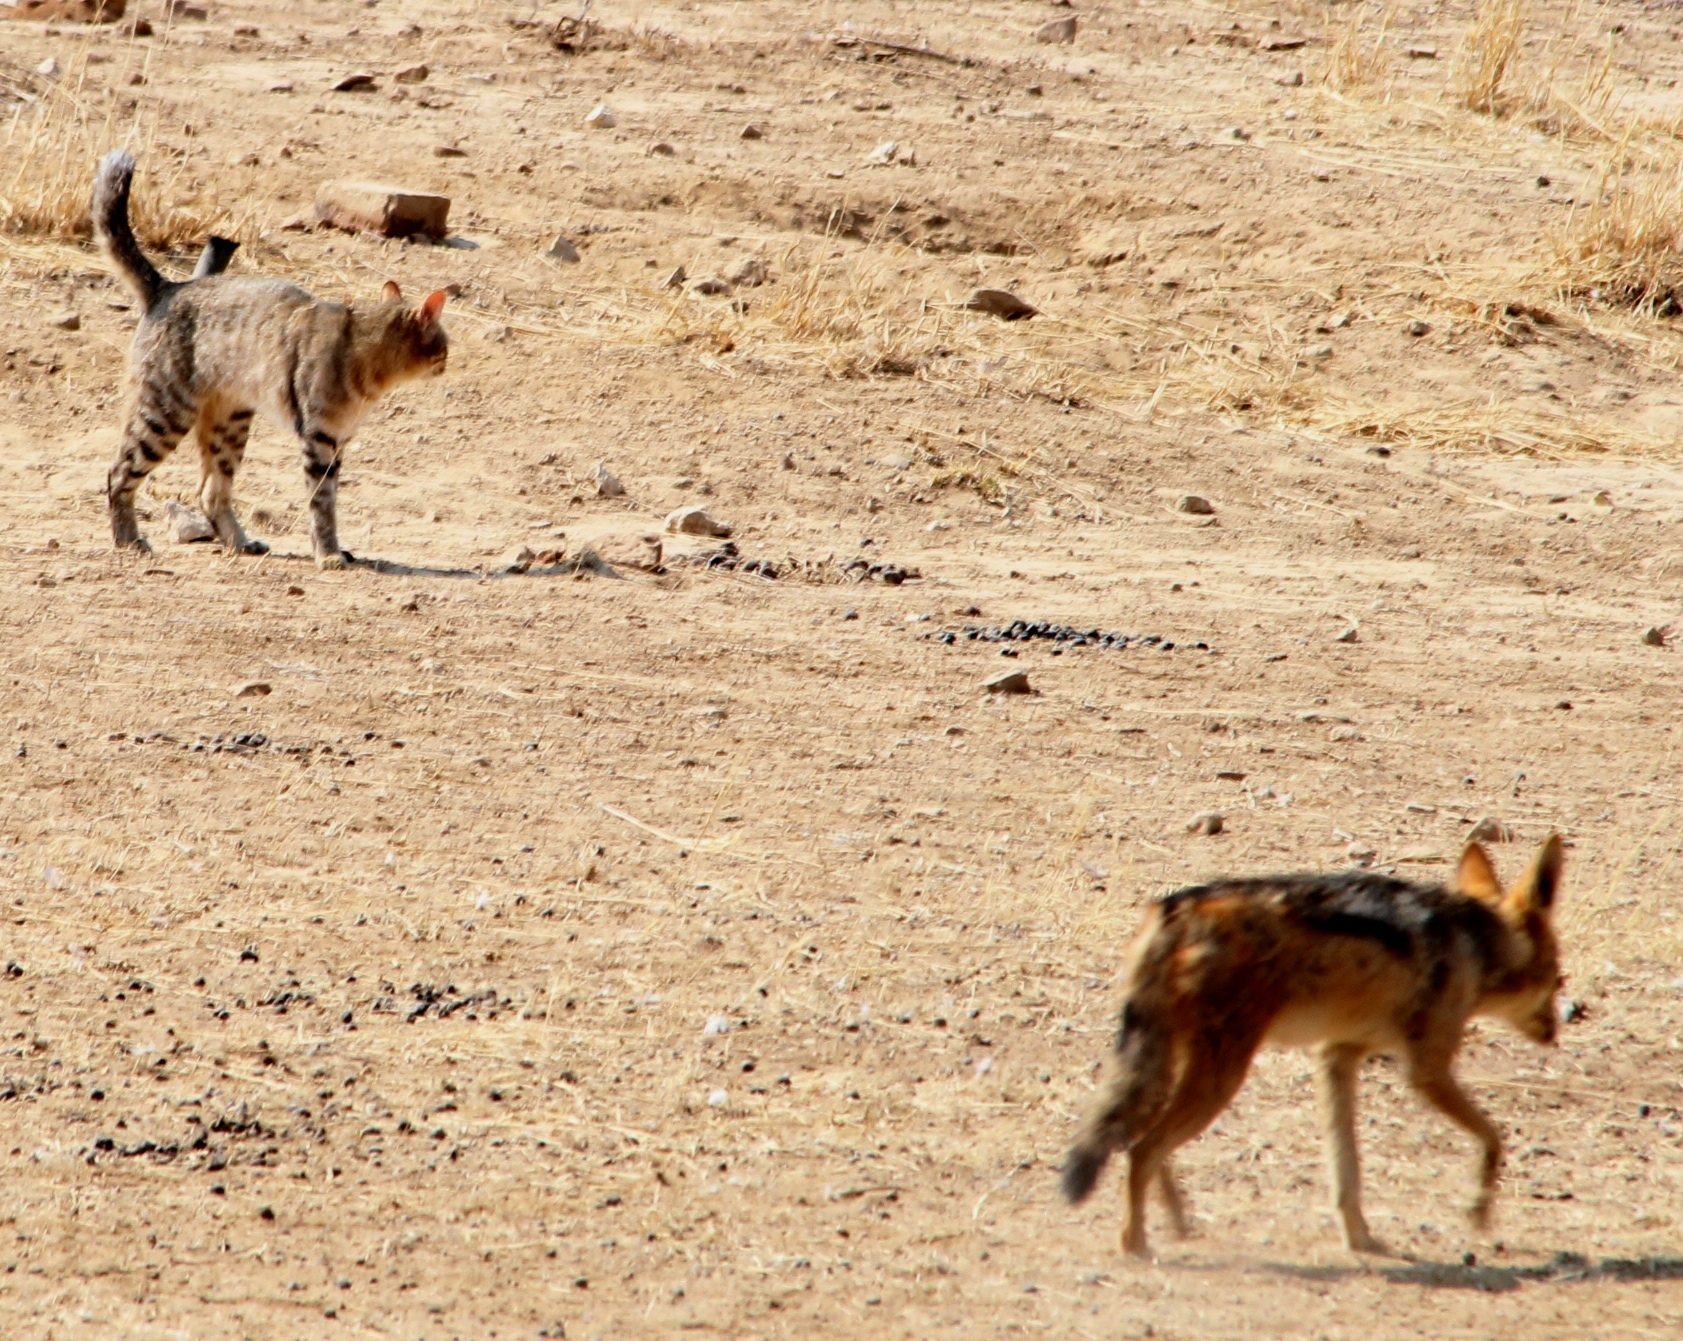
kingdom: Animalia
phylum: Chordata
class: Mammalia
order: Carnivora
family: Canidae
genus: Lupulella
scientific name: Lupulella
